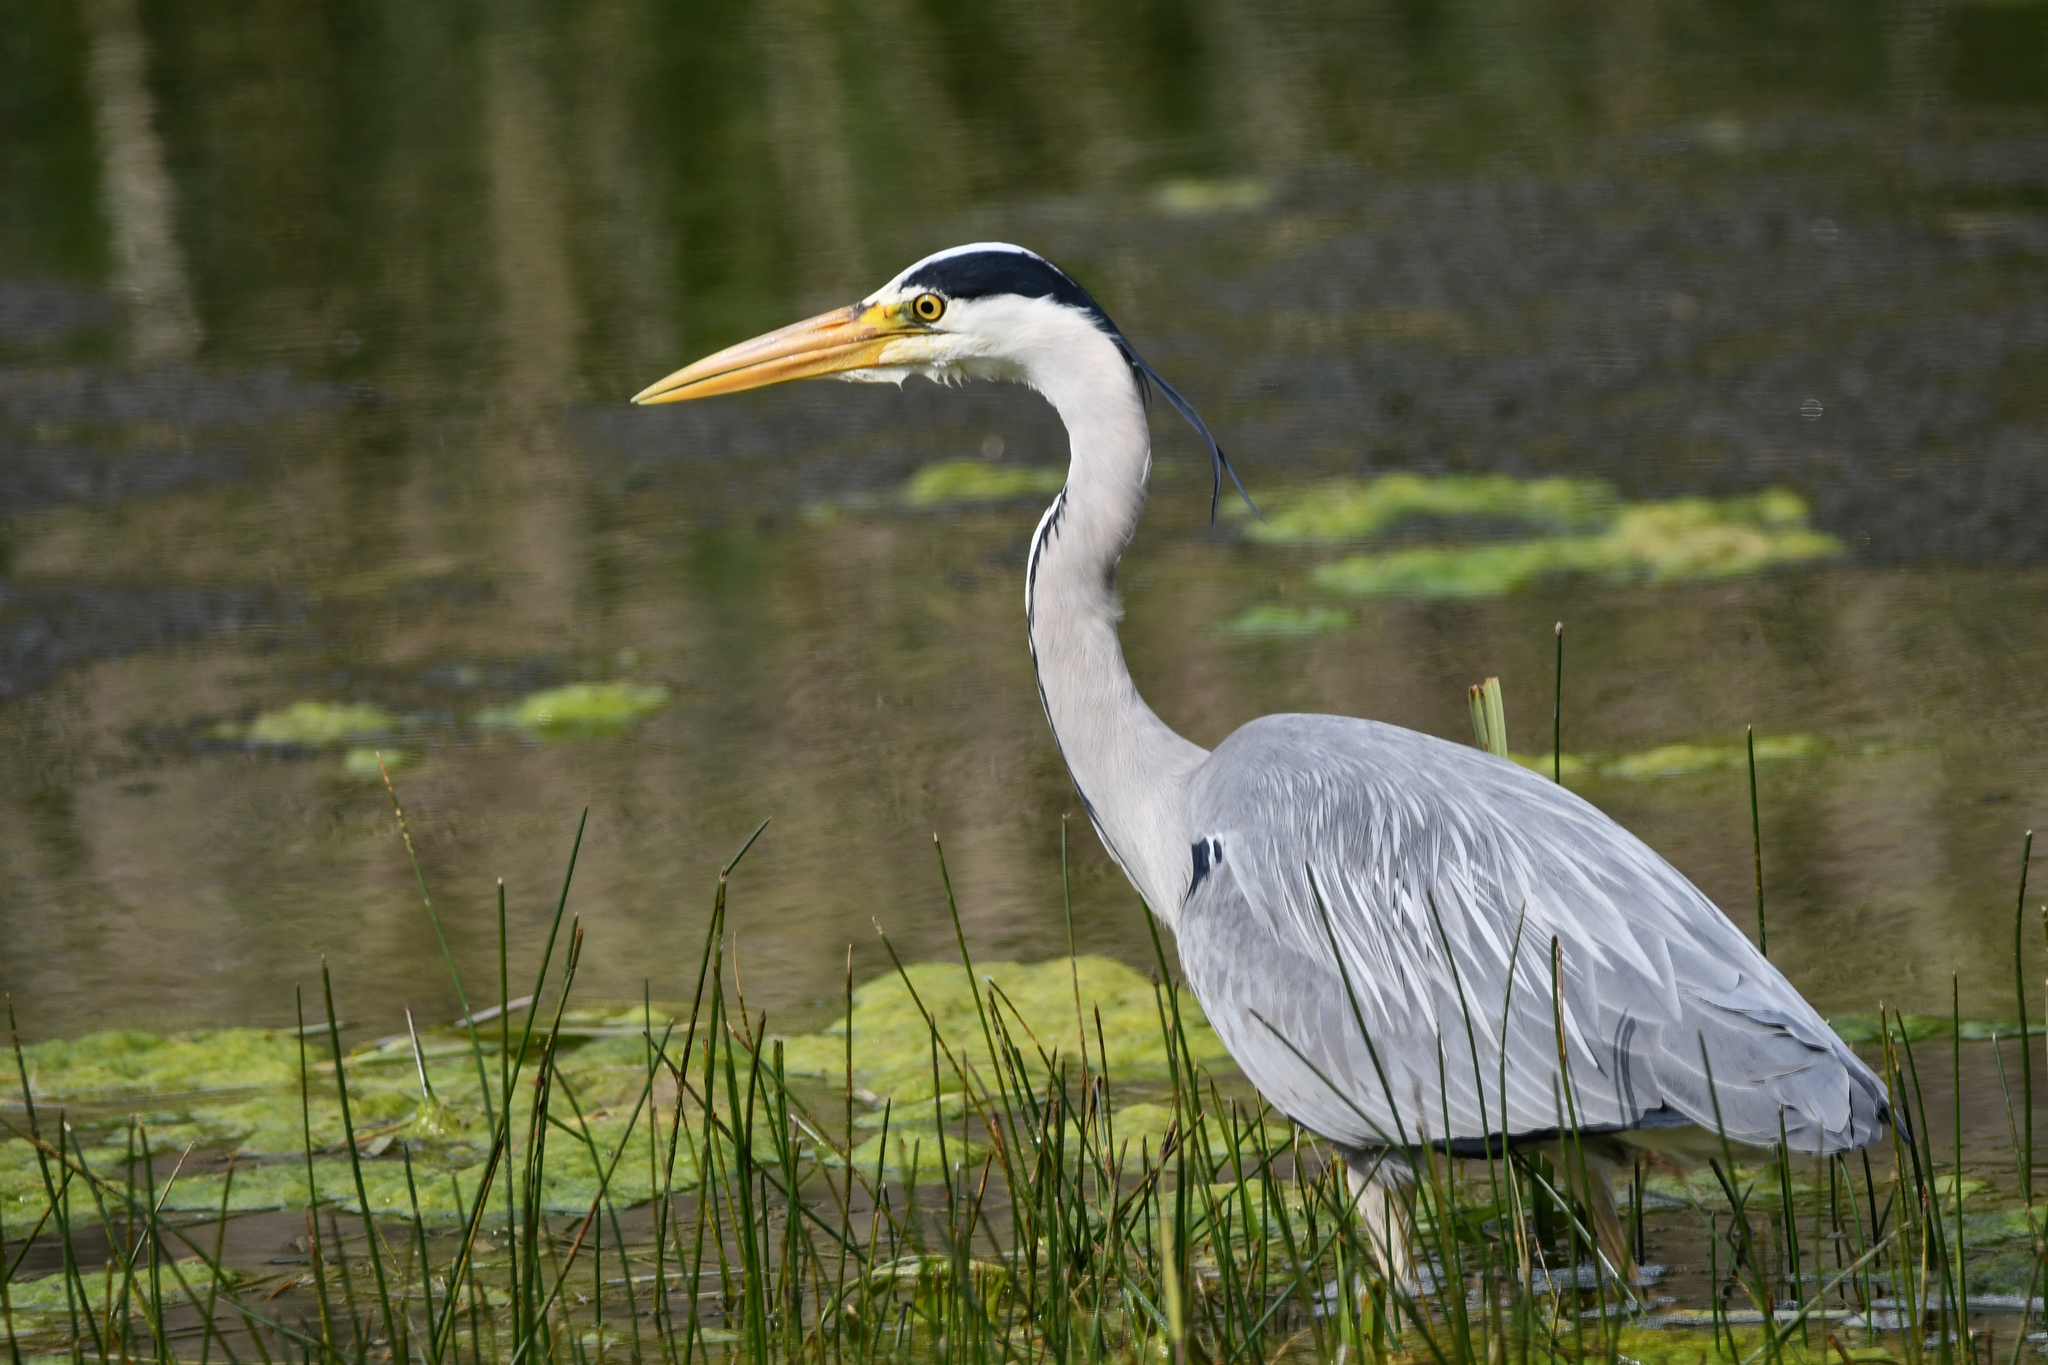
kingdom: Animalia
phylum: Chordata
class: Aves
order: Pelecaniformes
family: Ardeidae
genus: Ardea
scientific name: Ardea cinerea
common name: Grey heron
